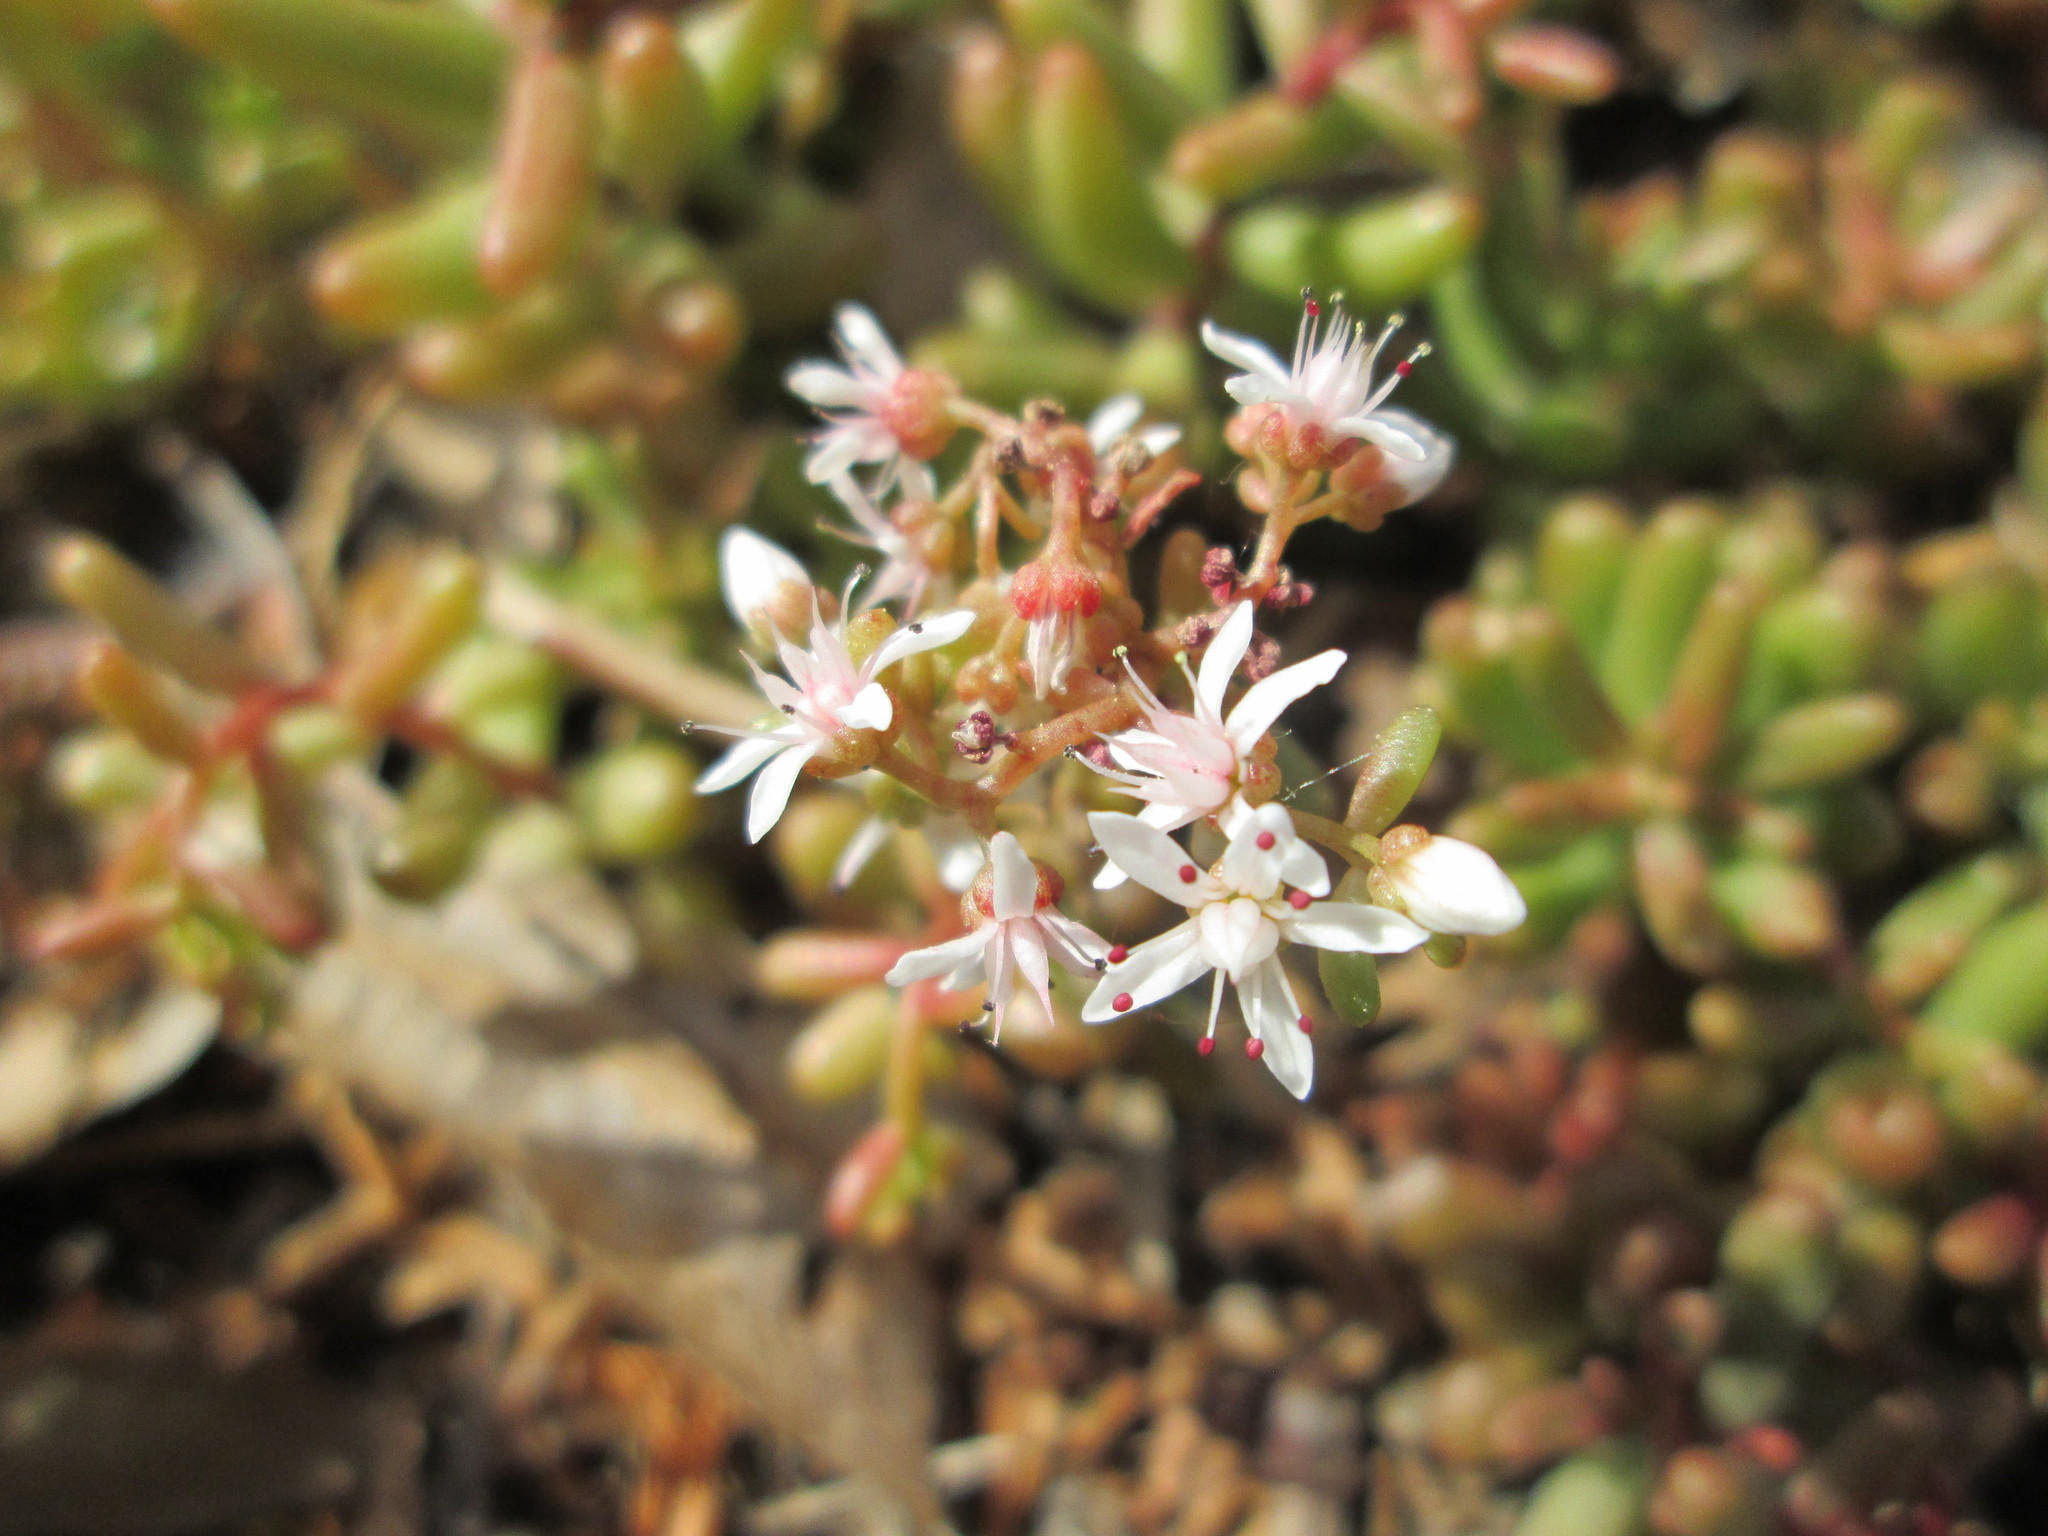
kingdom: Plantae
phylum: Tracheophyta
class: Magnoliopsida
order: Saxifragales
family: Crassulaceae
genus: Sedum
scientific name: Sedum album
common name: White stonecrop
